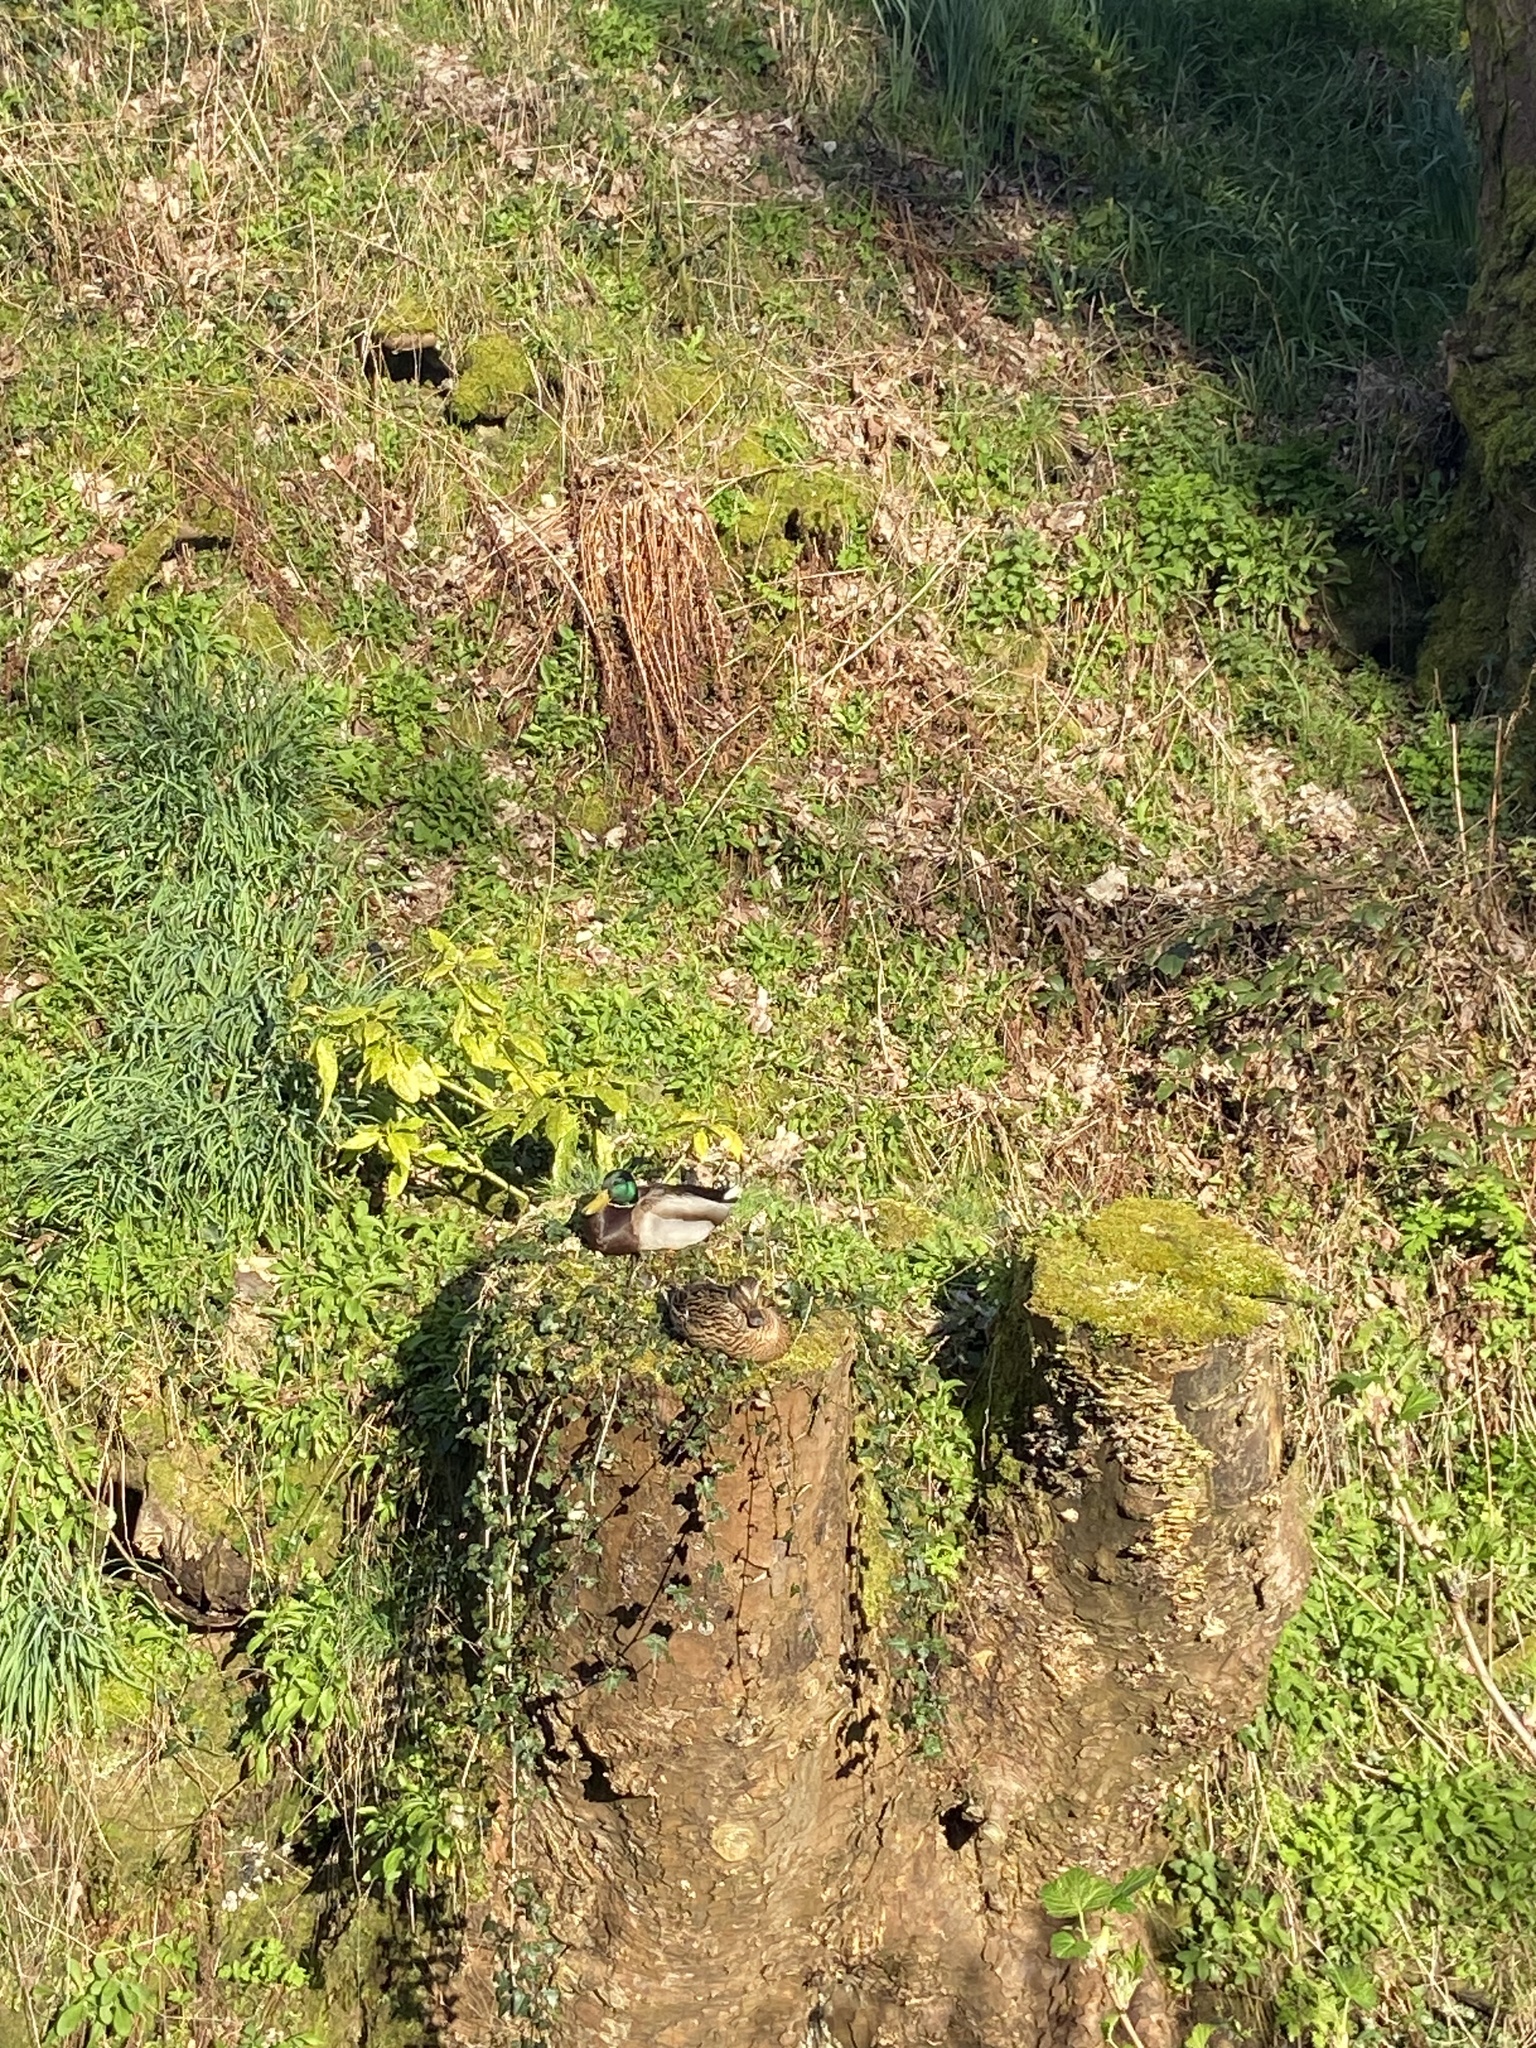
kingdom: Animalia
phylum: Chordata
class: Aves
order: Anseriformes
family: Anatidae
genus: Anas
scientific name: Anas platyrhynchos
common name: Mallard
